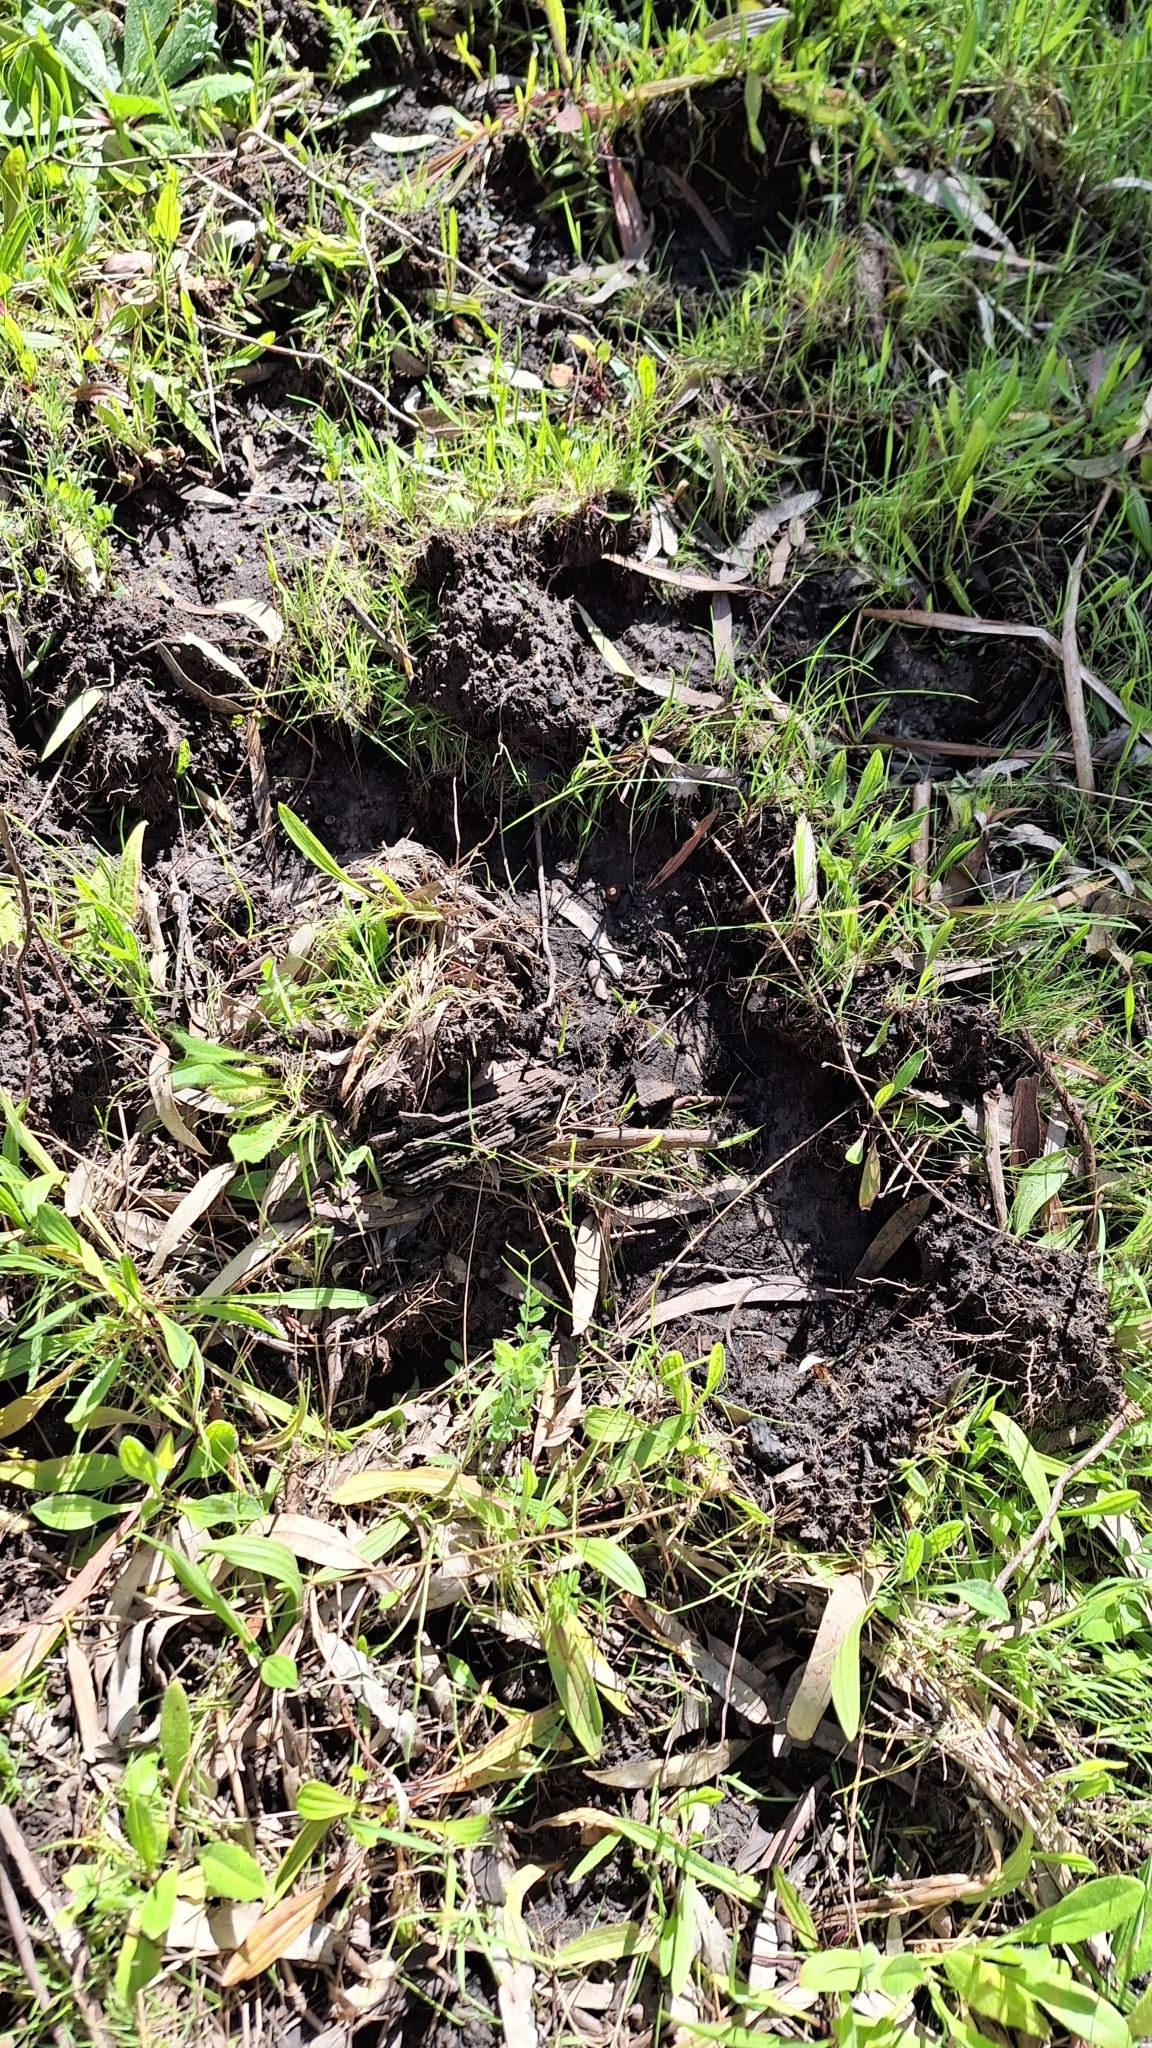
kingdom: Animalia
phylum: Chordata
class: Mammalia
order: Artiodactyla
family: Suidae
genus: Sus
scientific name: Sus scrofa
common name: Wild boar
